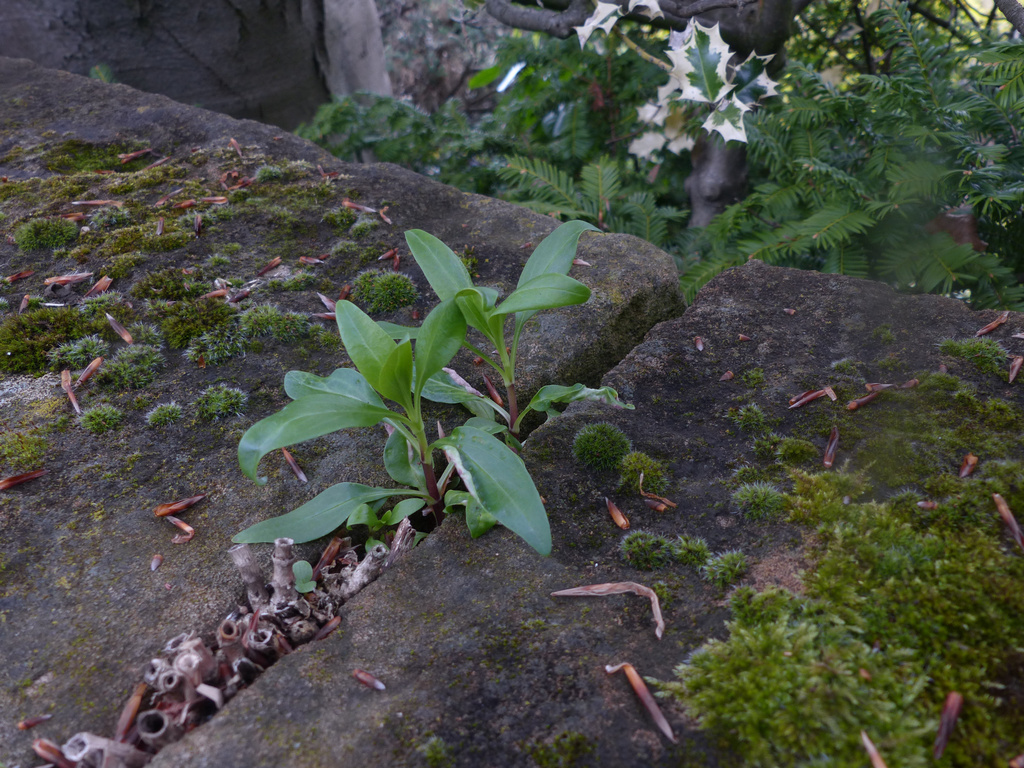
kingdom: Animalia
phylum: Arthropoda
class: Insecta
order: Hemiptera
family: Triozidae
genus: Trioza
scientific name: Trioza centranthi
